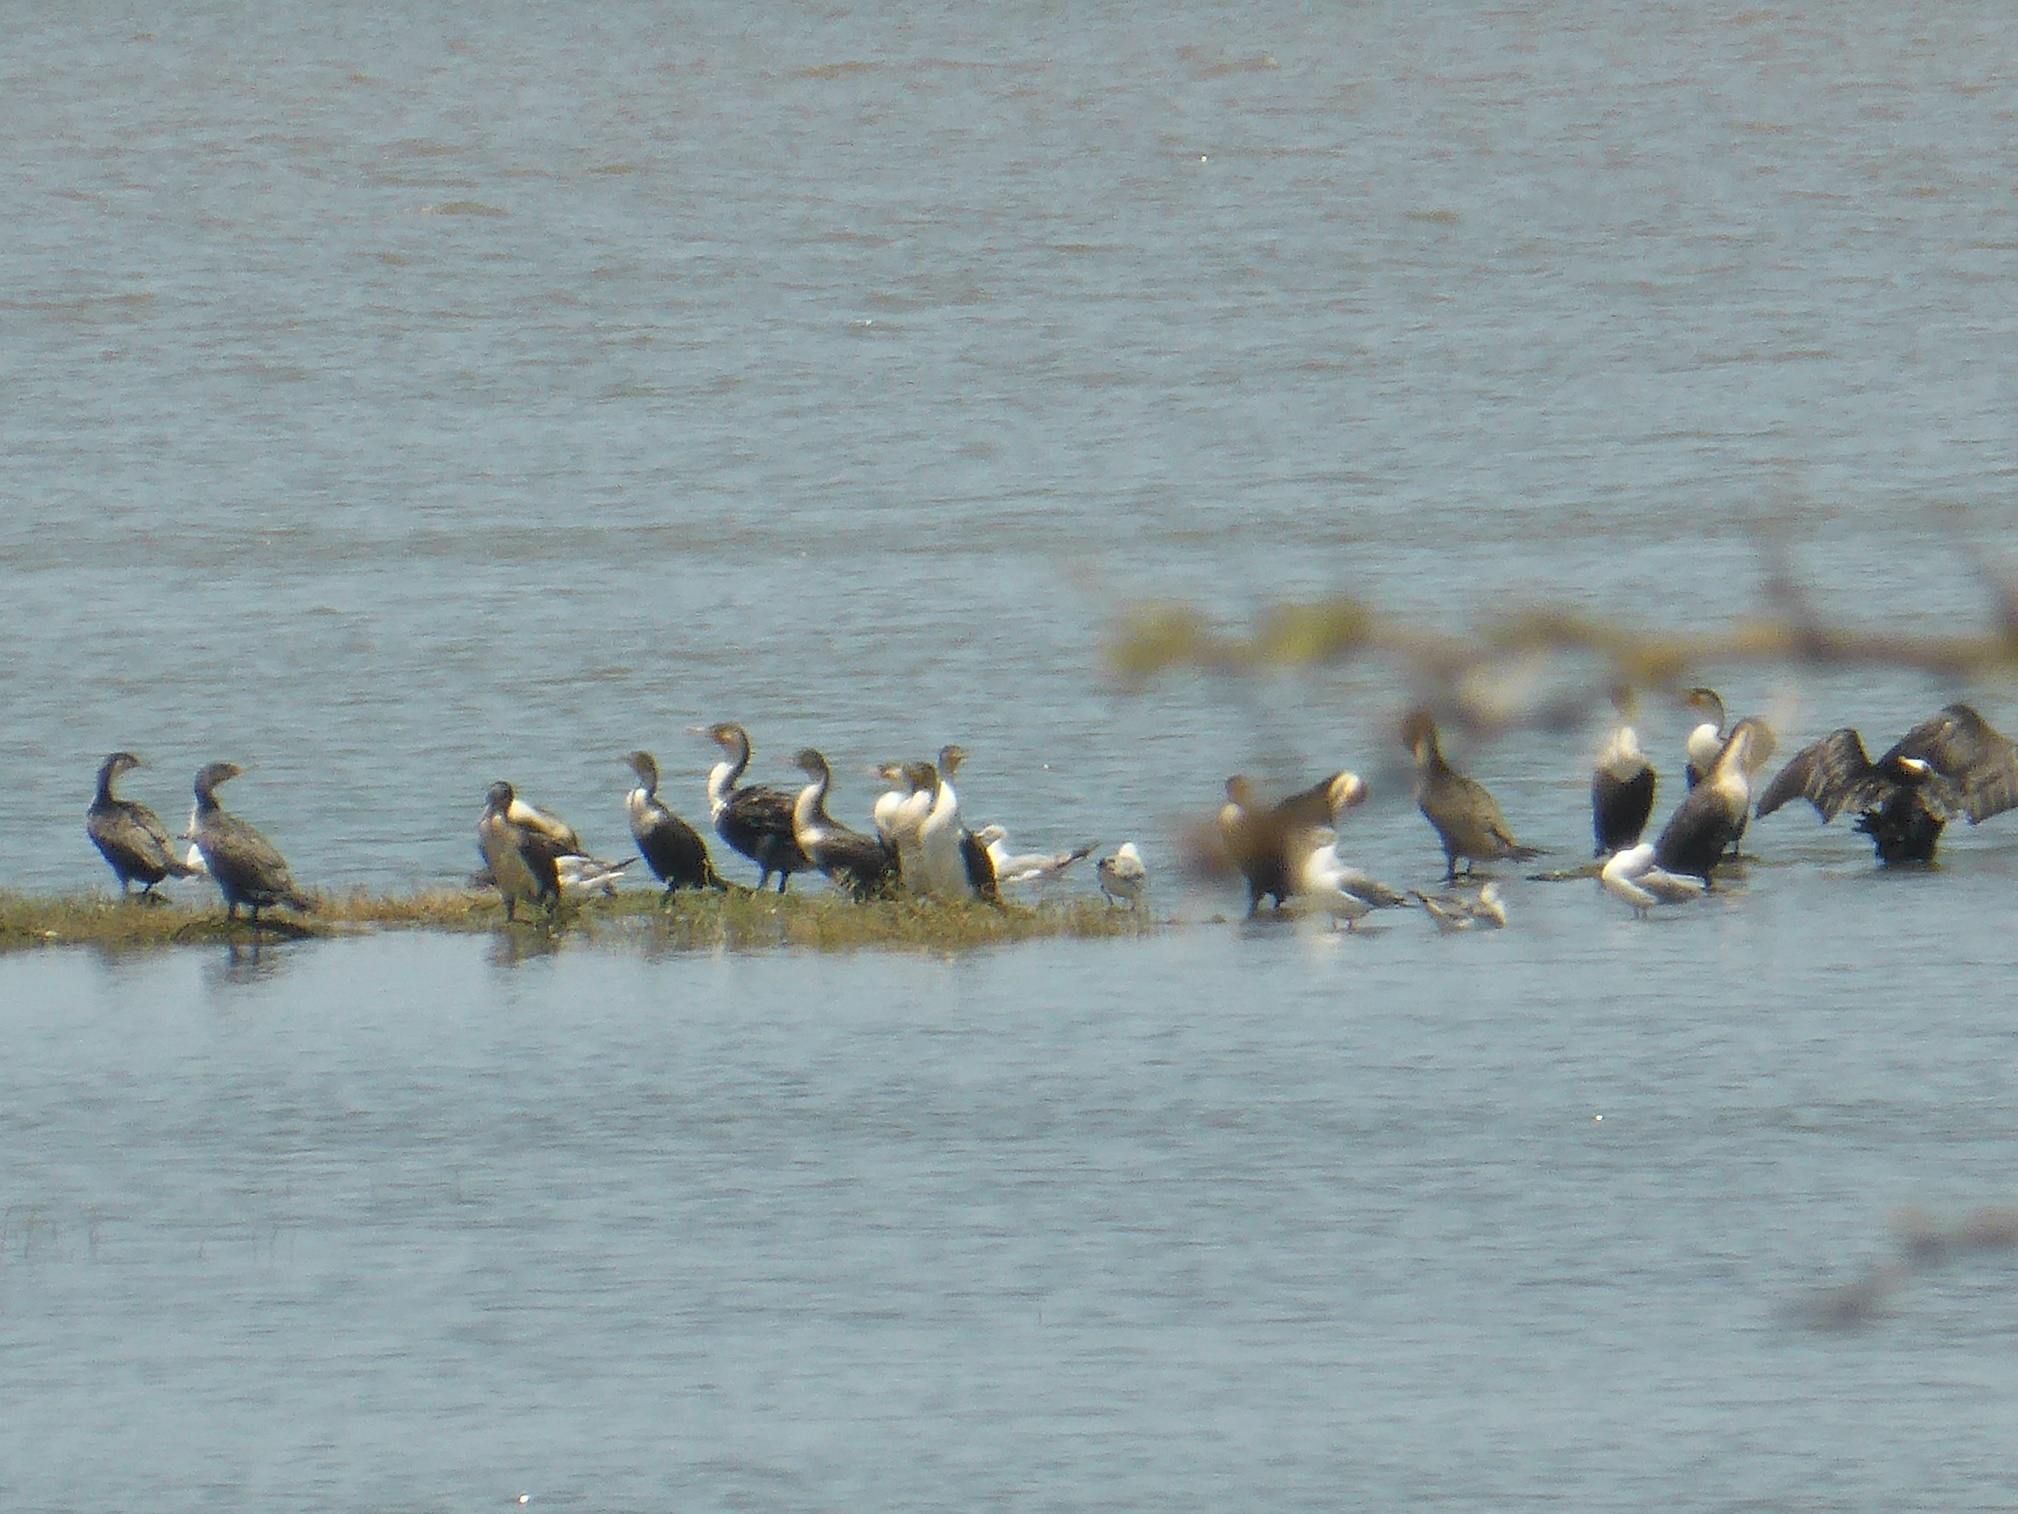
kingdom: Animalia
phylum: Chordata
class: Aves
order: Suliformes
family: Phalacrocoracidae
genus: Phalacrocorax
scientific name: Phalacrocorax carbo
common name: Great cormorant
